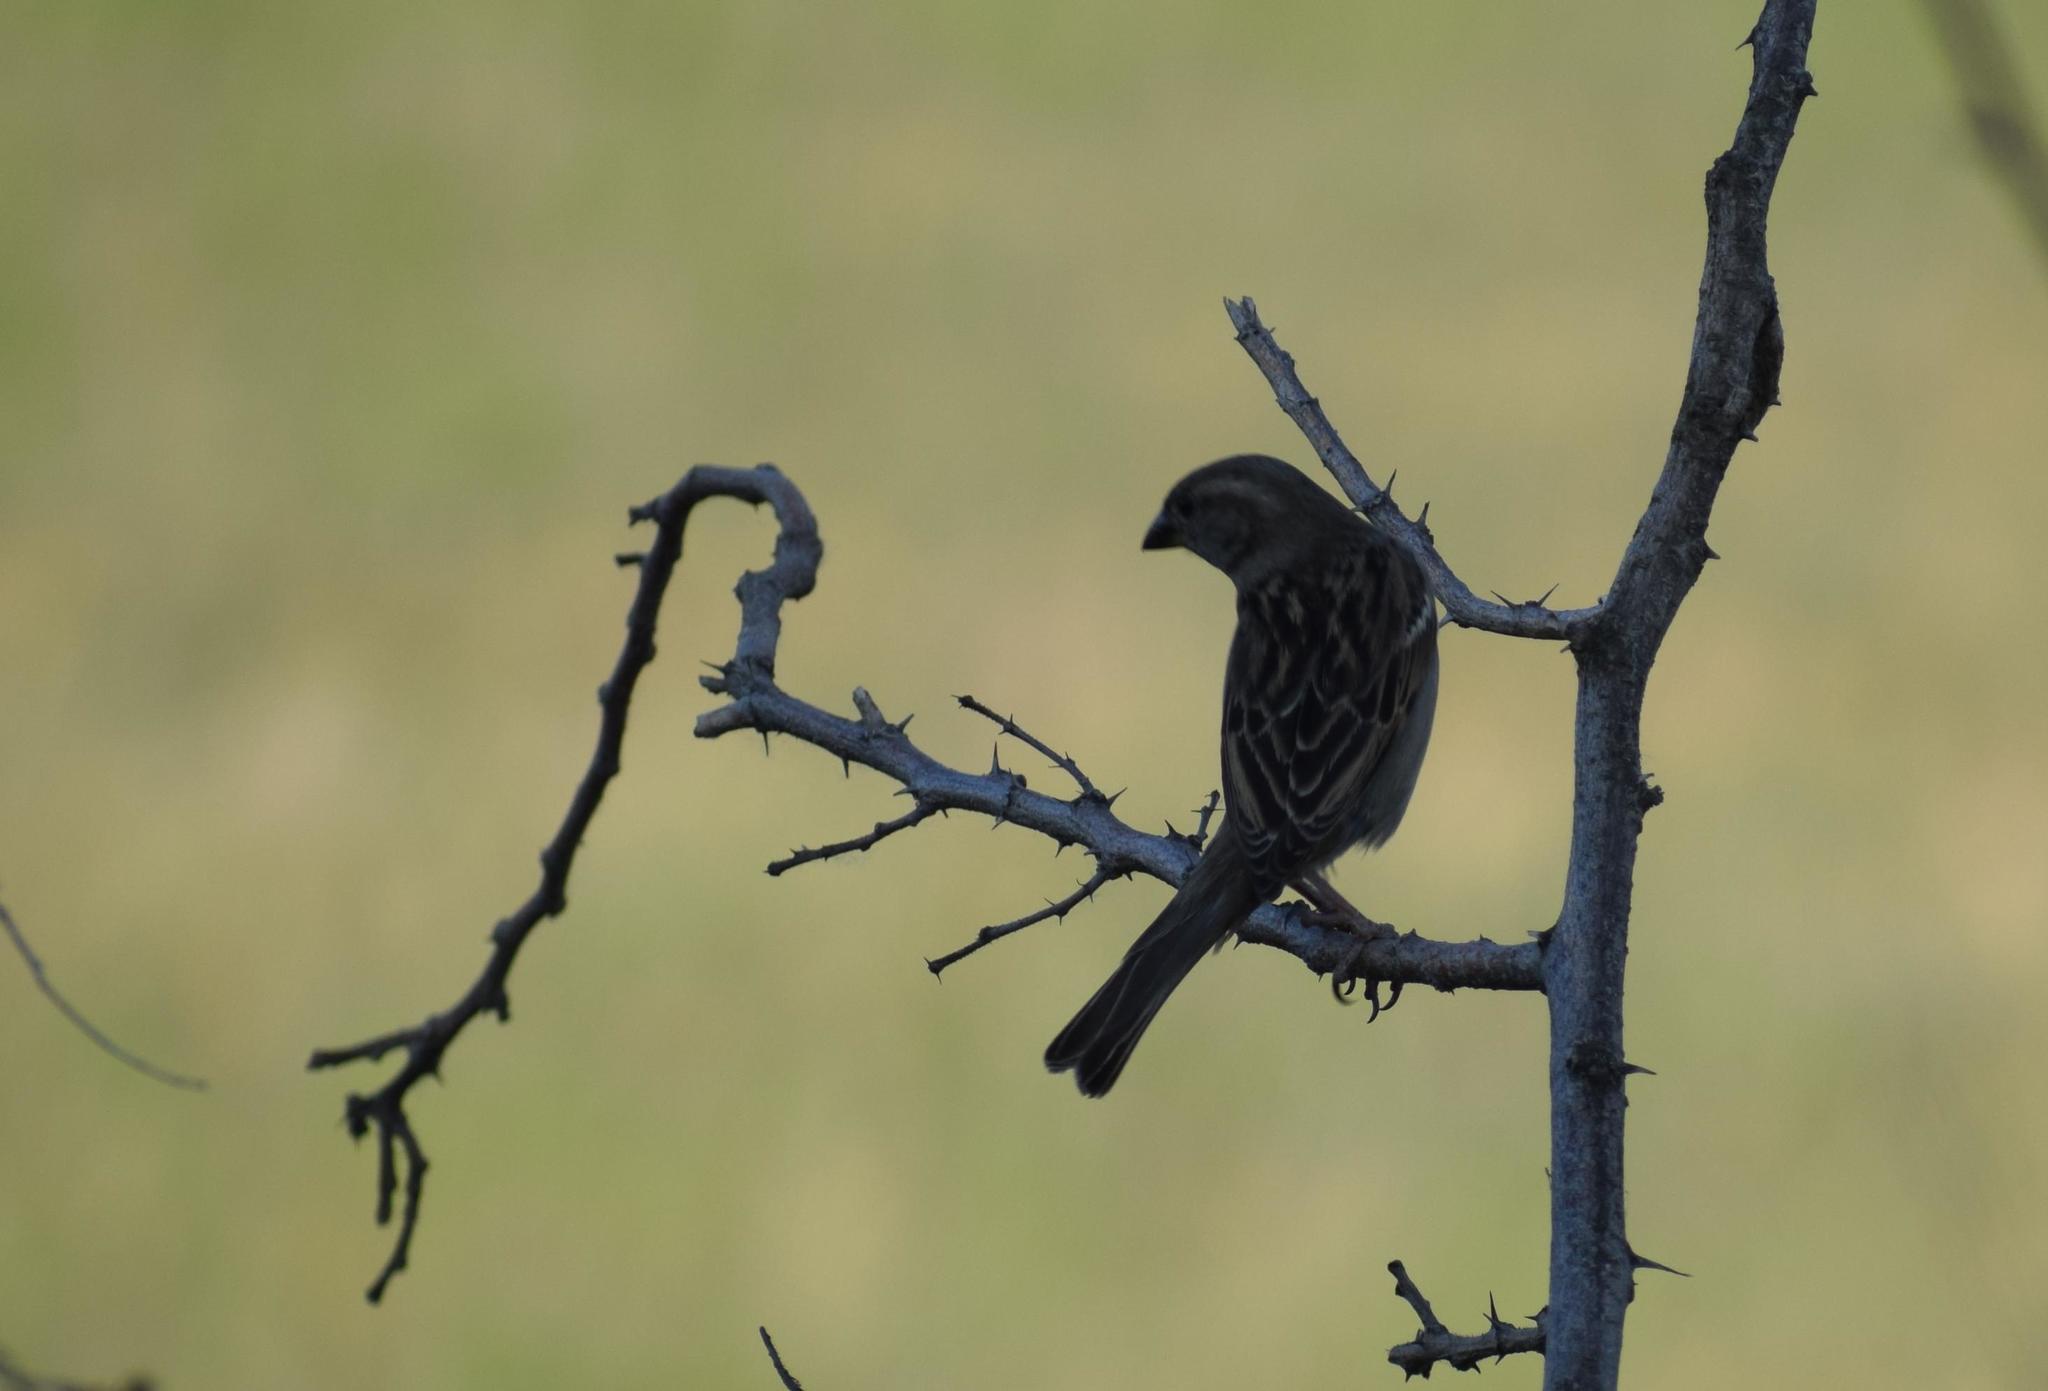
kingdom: Animalia
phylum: Chordata
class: Aves
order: Passeriformes
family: Passeridae
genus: Passer
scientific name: Passer domesticus
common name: House sparrow
